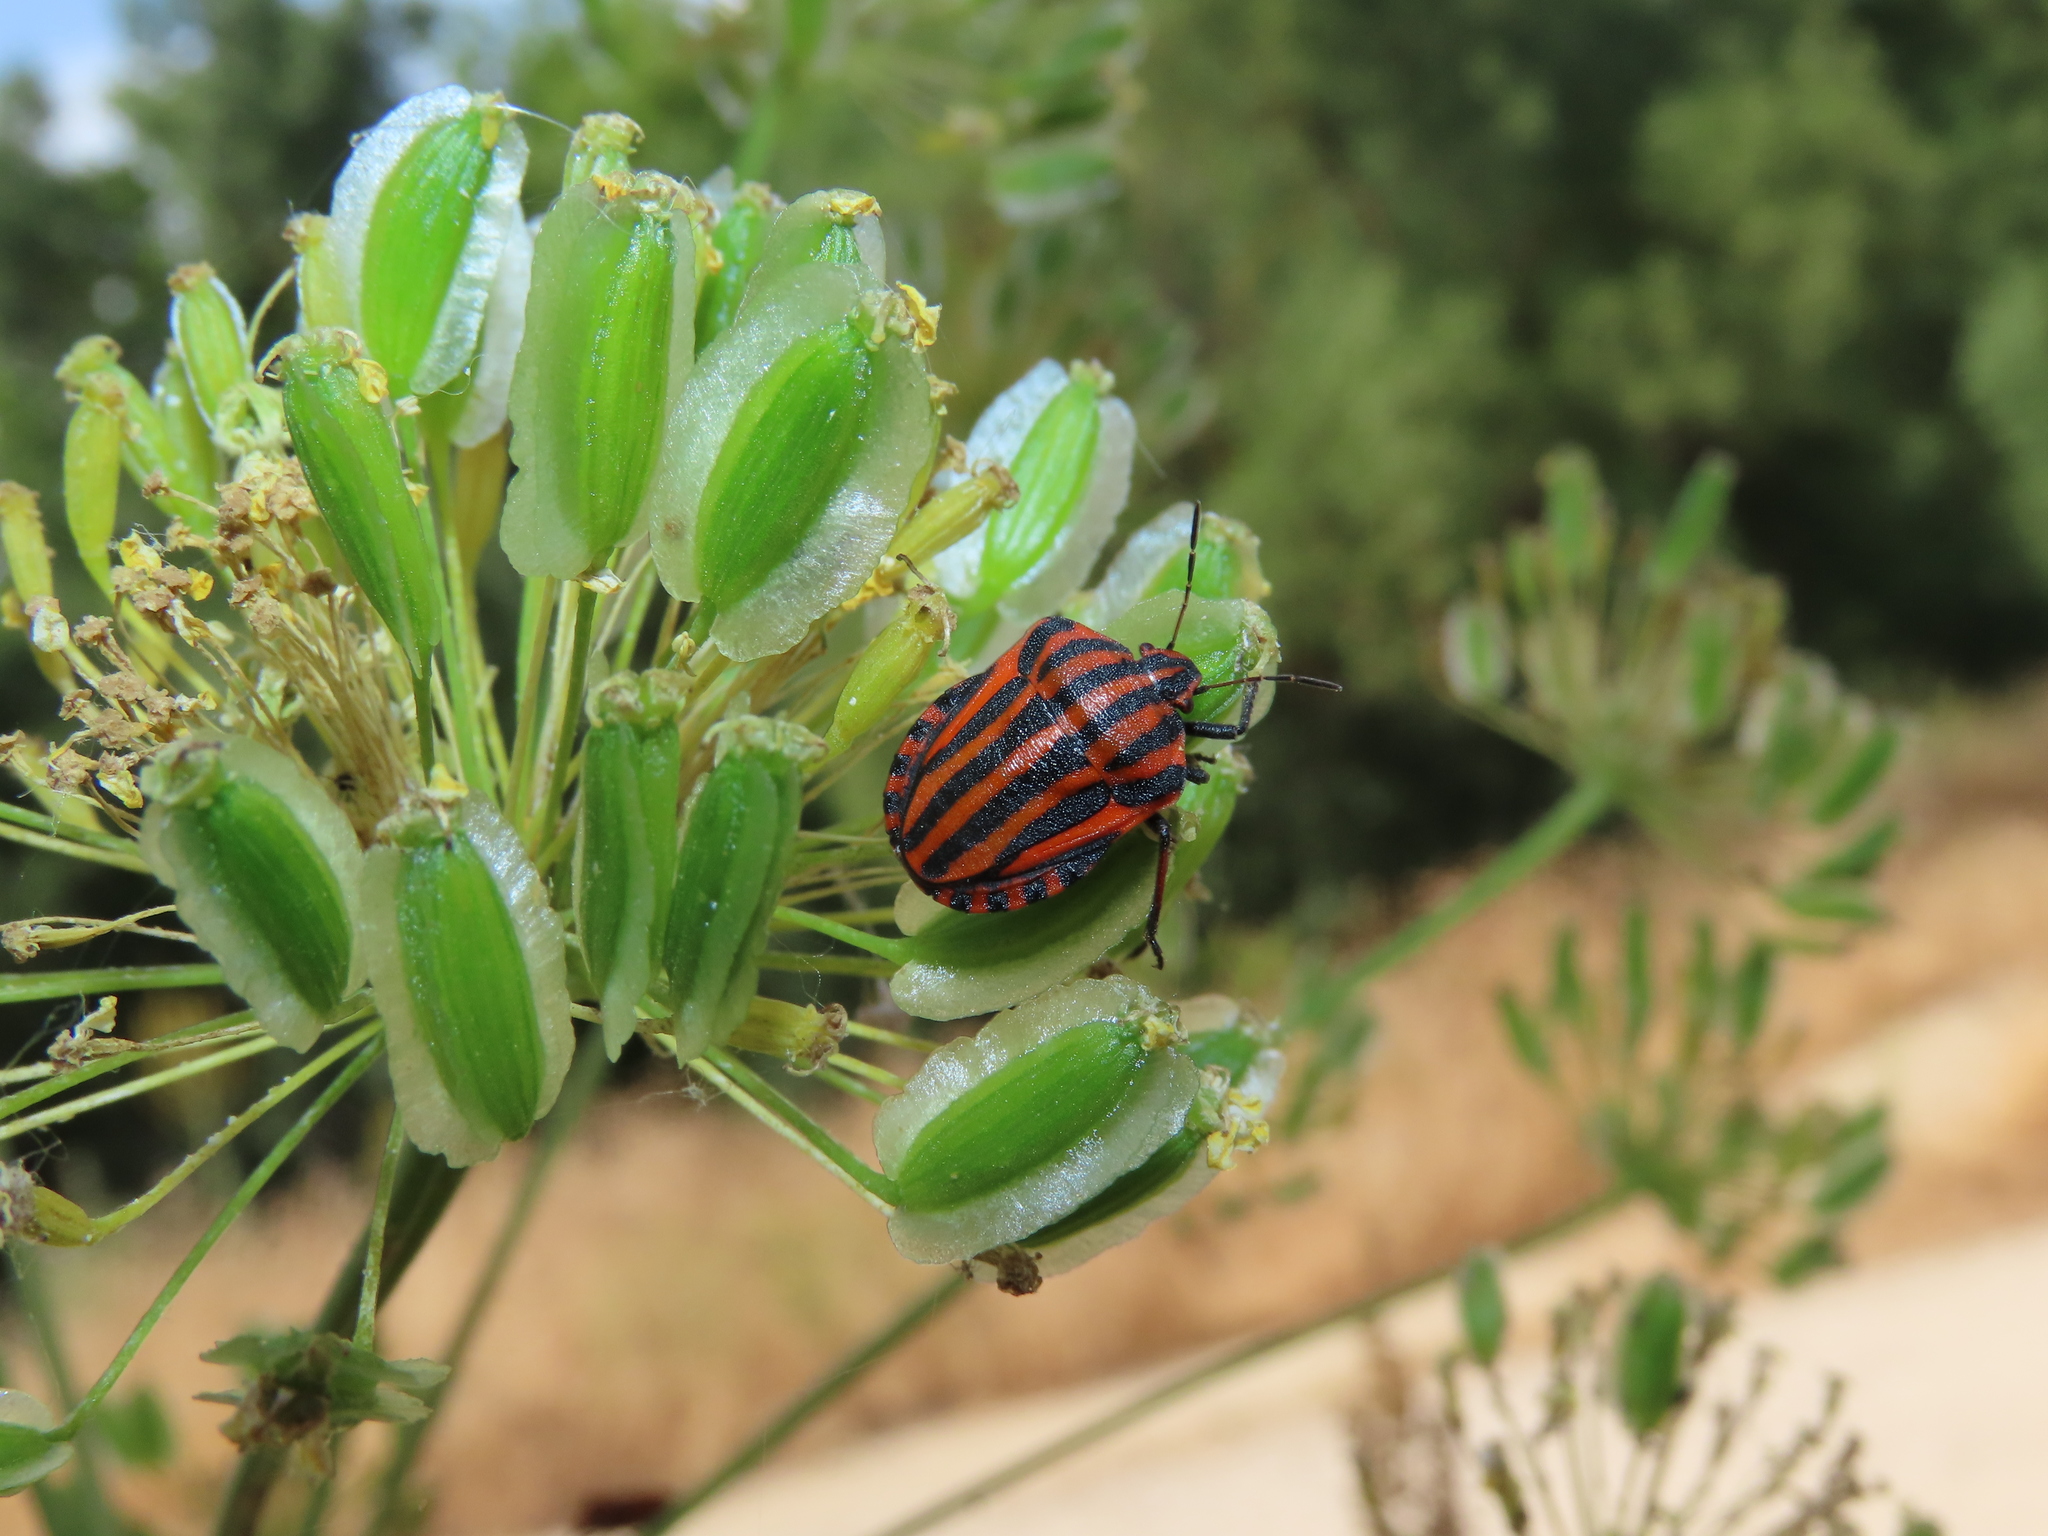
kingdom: Animalia
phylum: Arthropoda
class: Insecta
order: Hemiptera
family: Pentatomidae
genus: Graphosoma
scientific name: Graphosoma italicum
